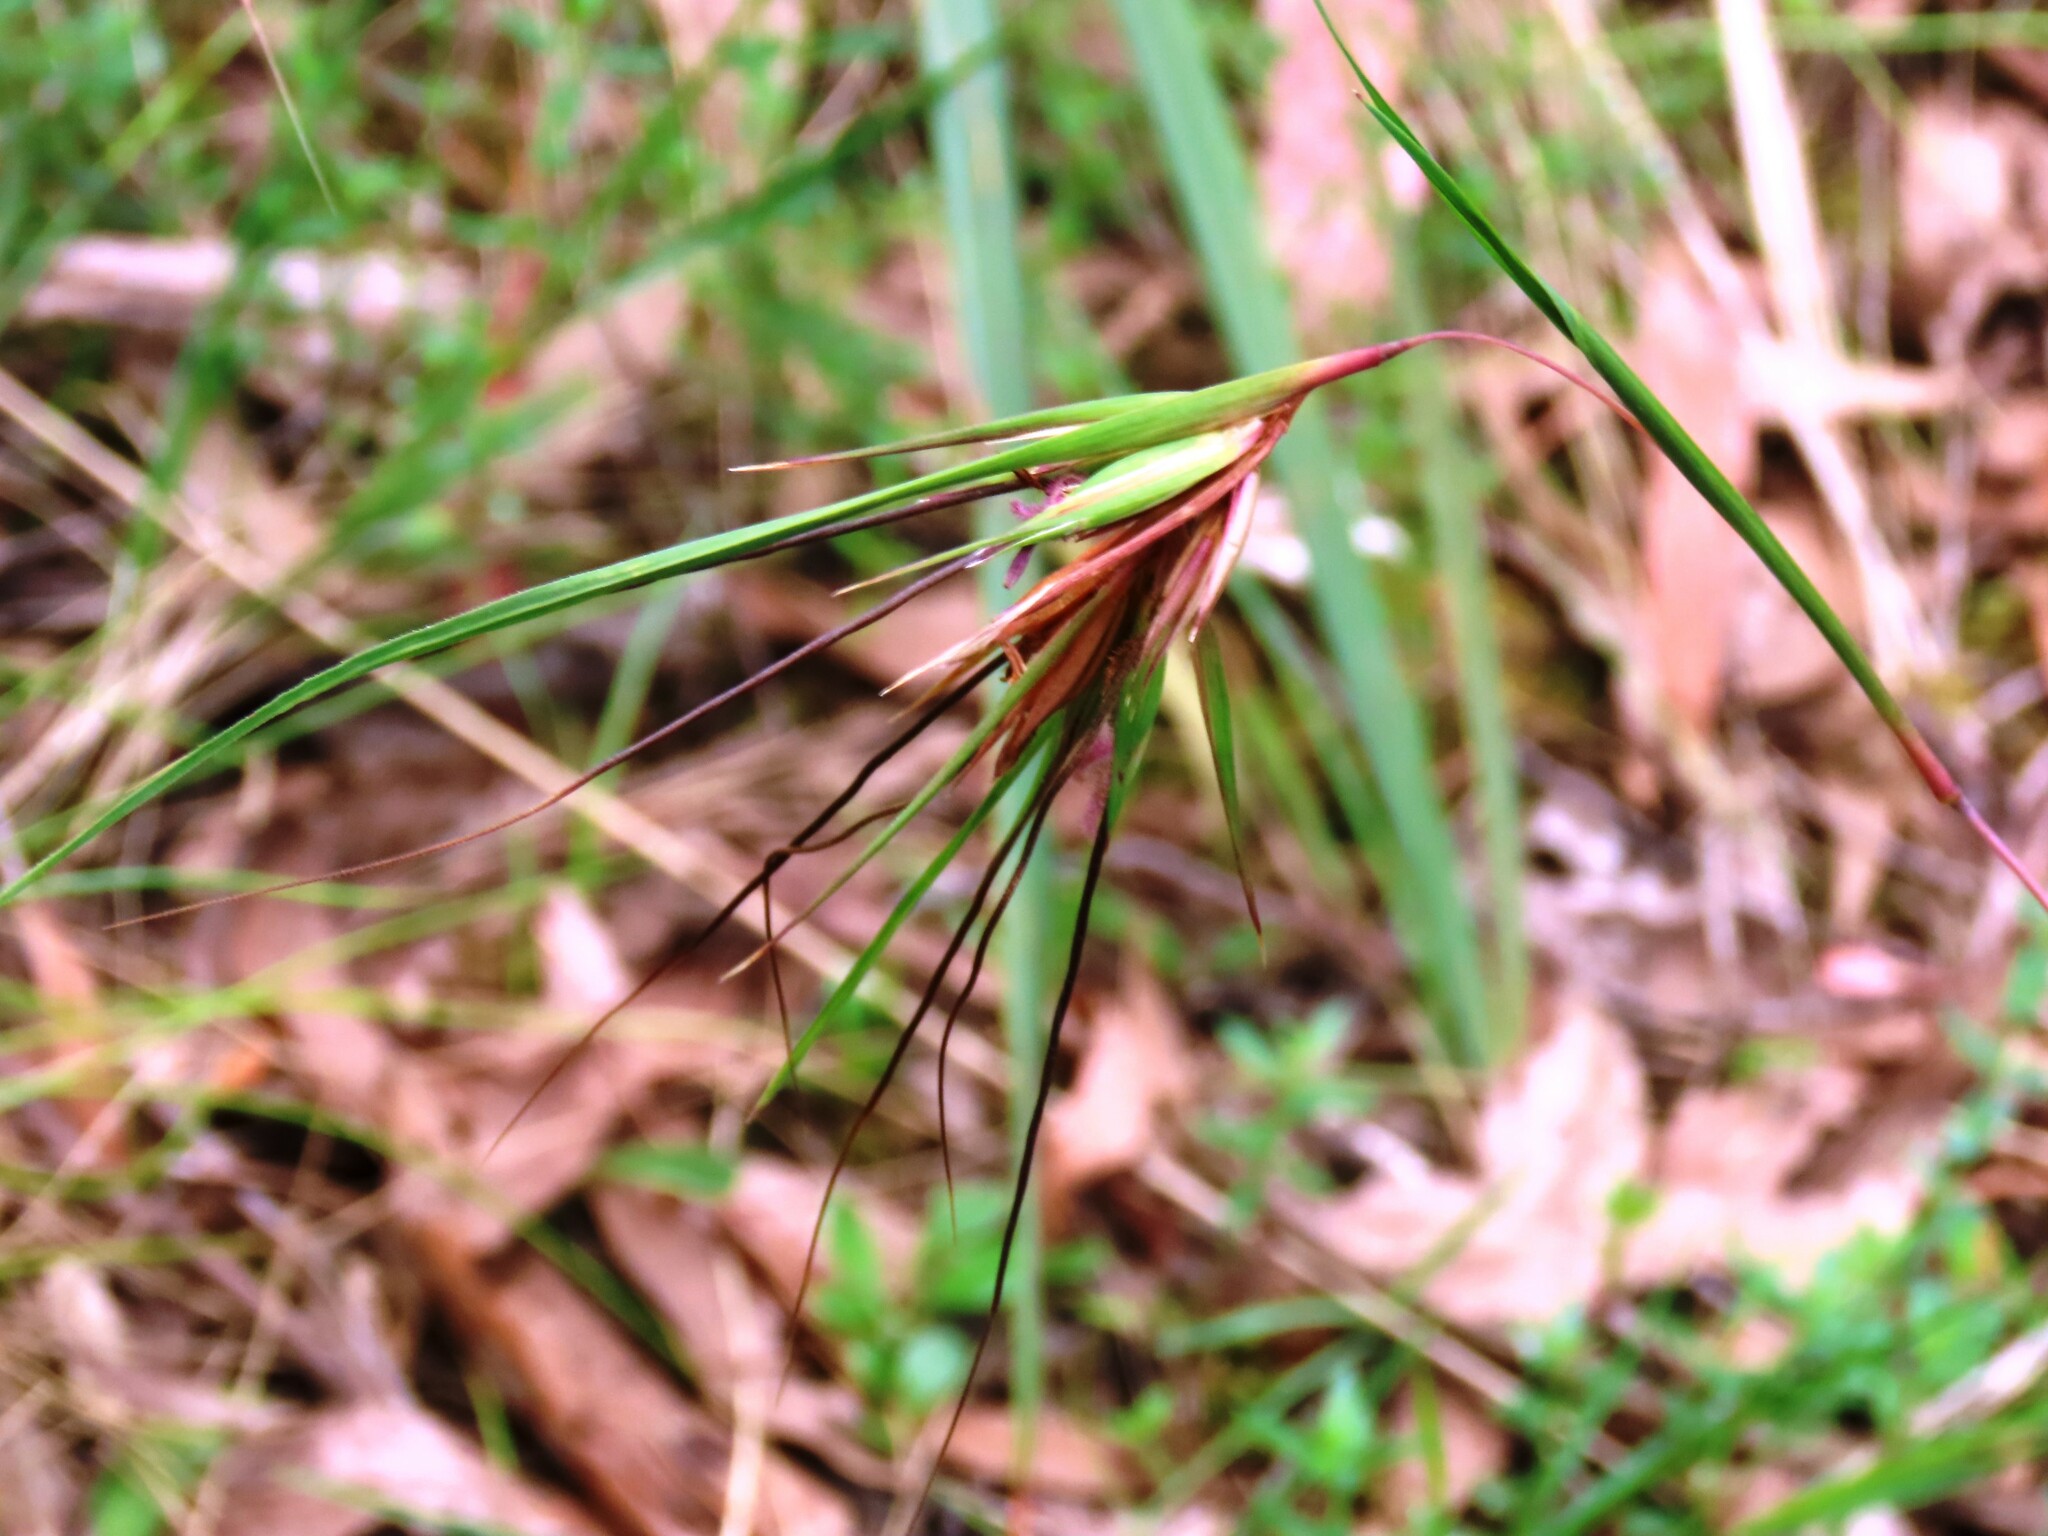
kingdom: Plantae
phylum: Tracheophyta
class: Liliopsida
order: Poales
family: Poaceae
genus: Themeda
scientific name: Themeda triandra
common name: Kangaroo grass
